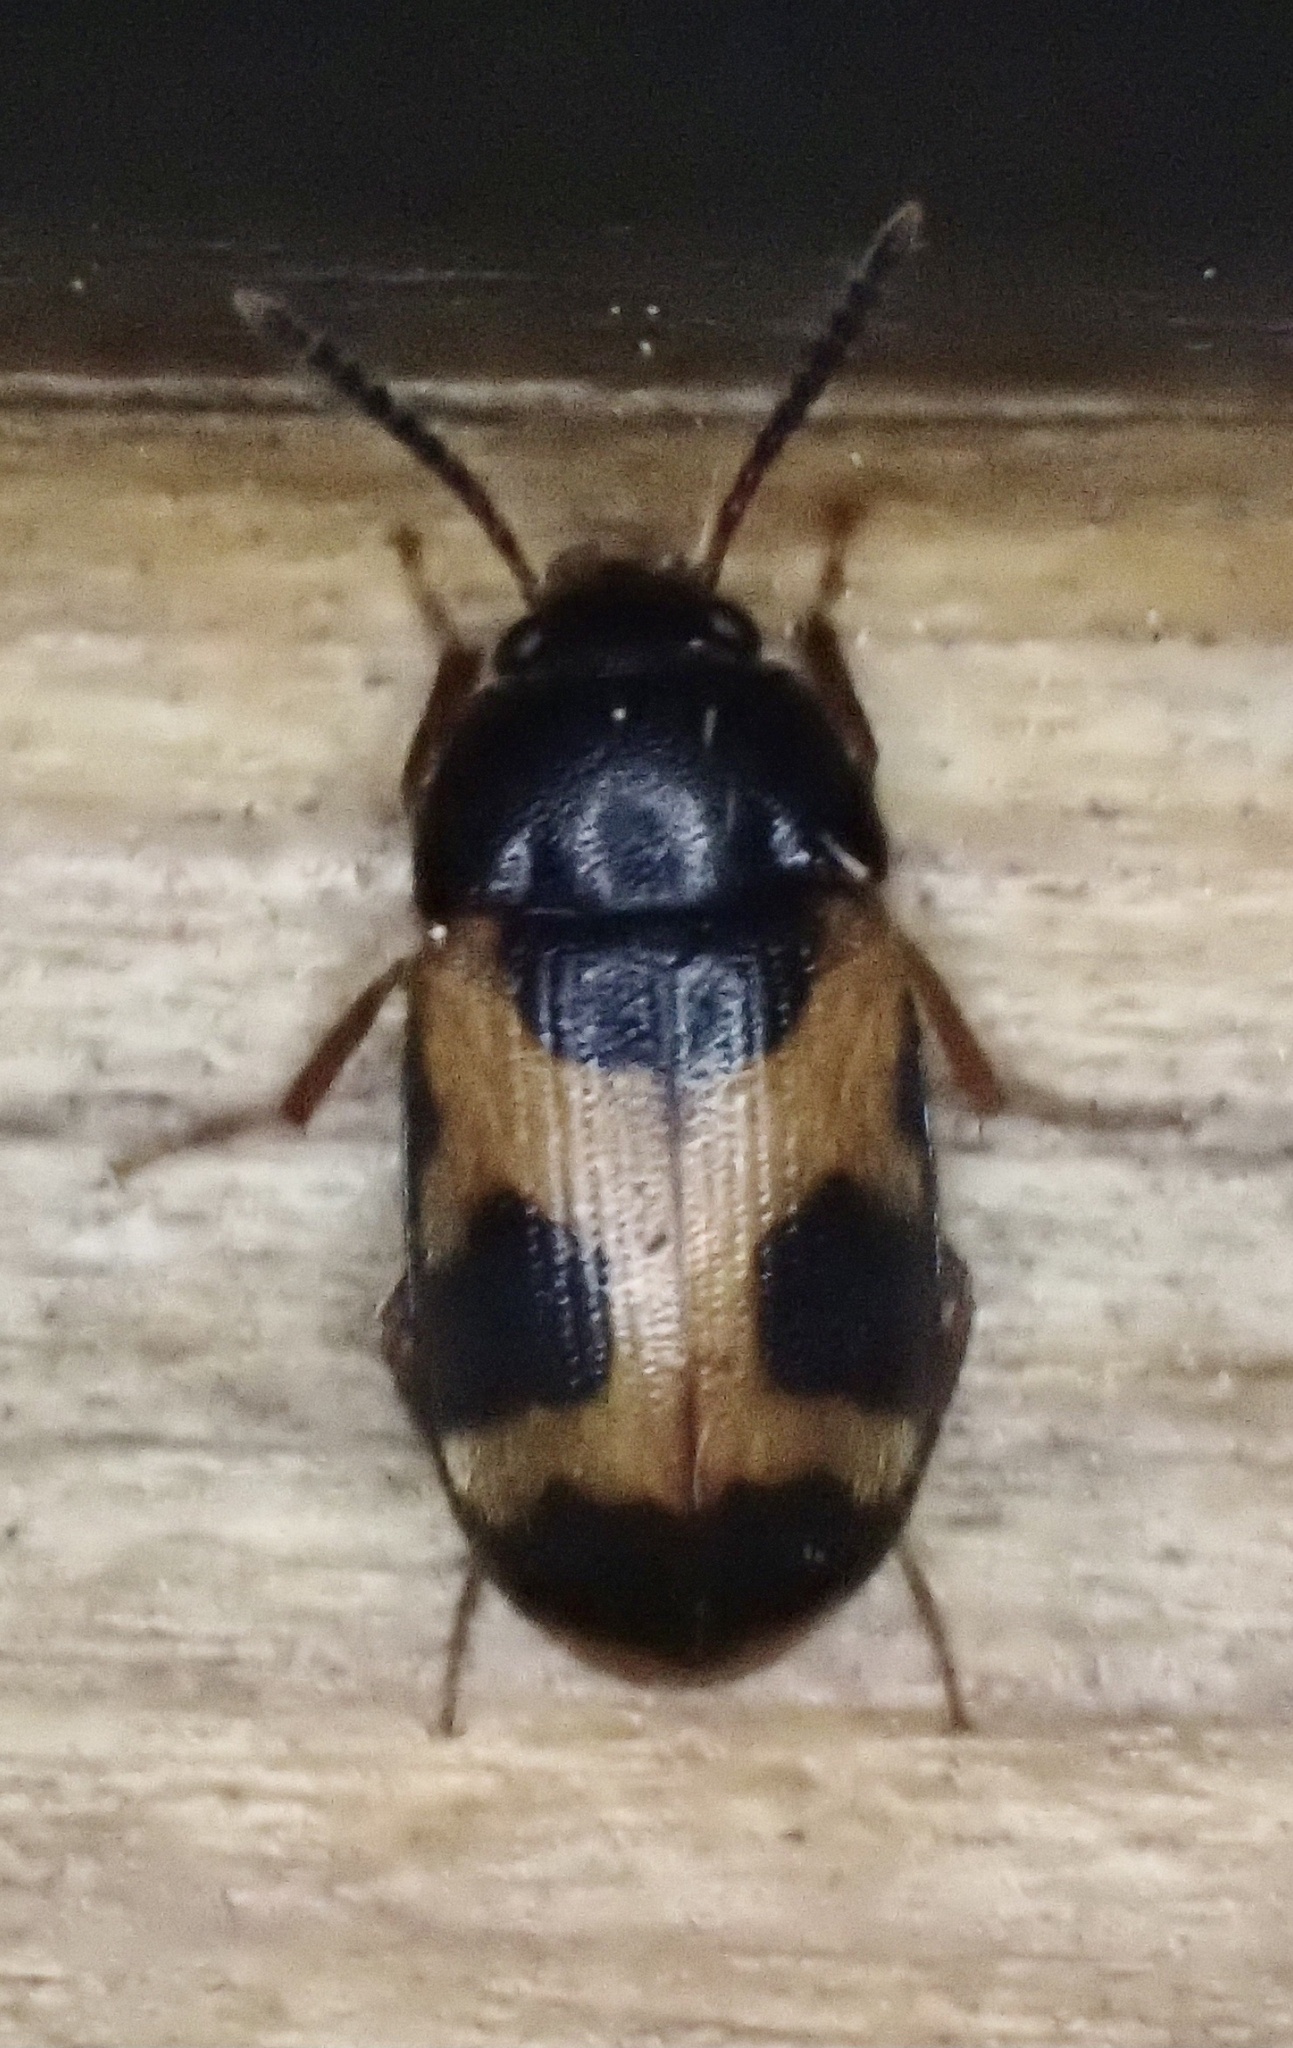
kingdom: Animalia
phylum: Arthropoda
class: Insecta
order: Coleoptera
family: Mycetophagidae
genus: Mycetophagus
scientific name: Mycetophagus punctatus
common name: Hairy fungus beetle
